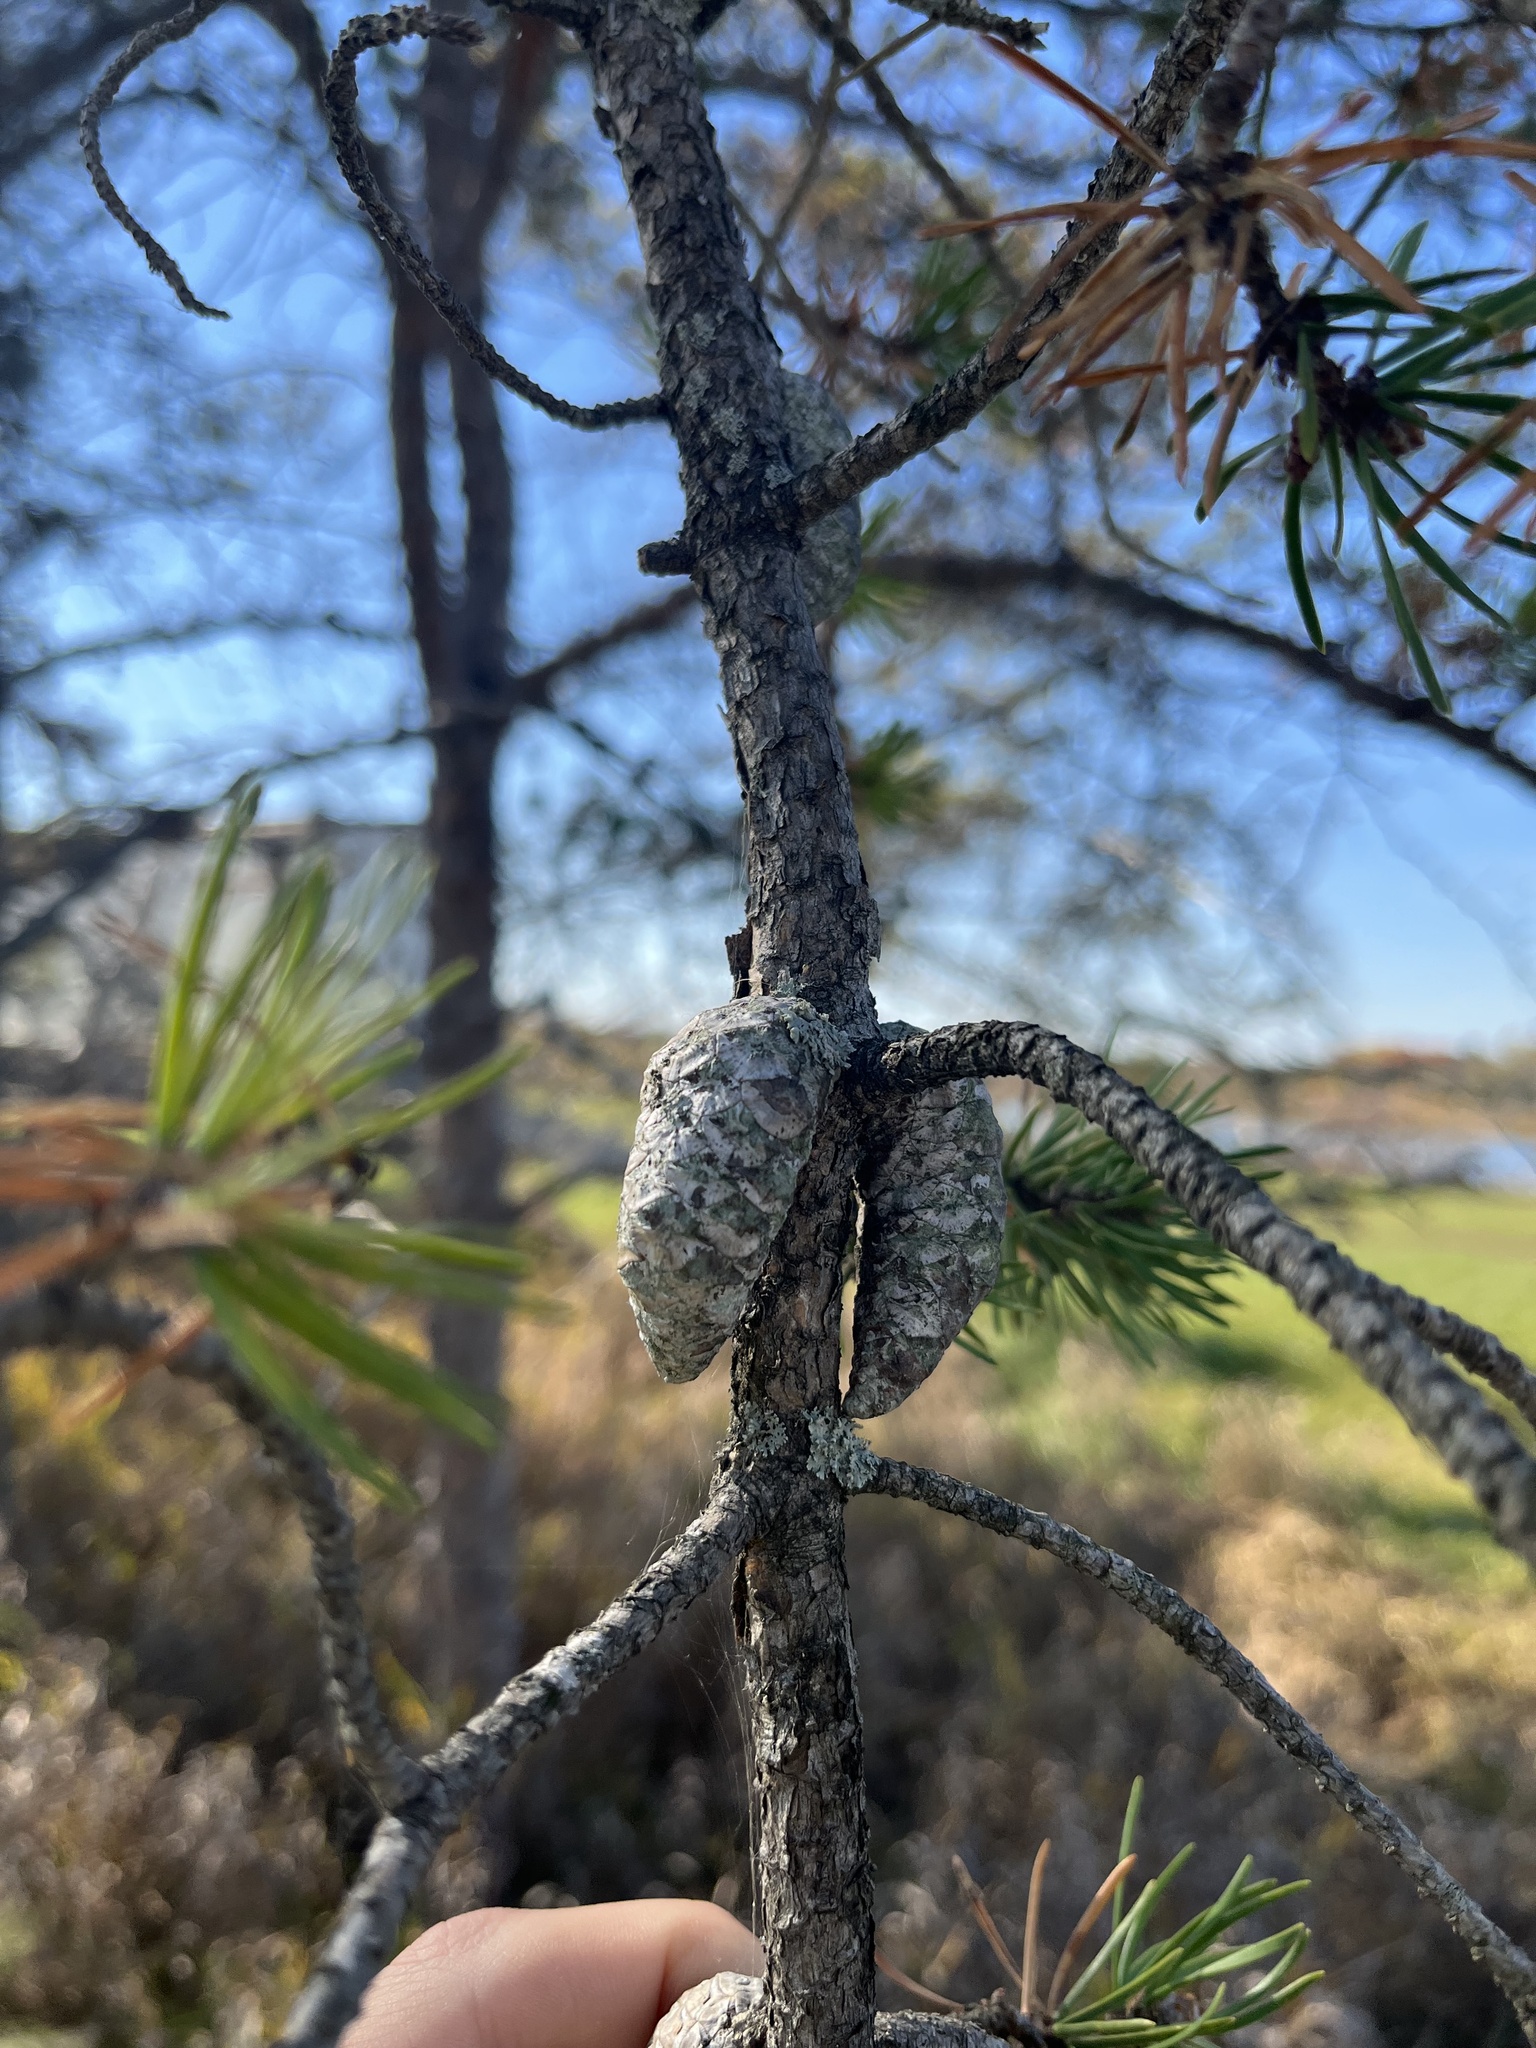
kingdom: Plantae
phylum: Tracheophyta
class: Pinopsida
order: Pinales
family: Pinaceae
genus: Pinus
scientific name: Pinus banksiana
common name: Jack pine
